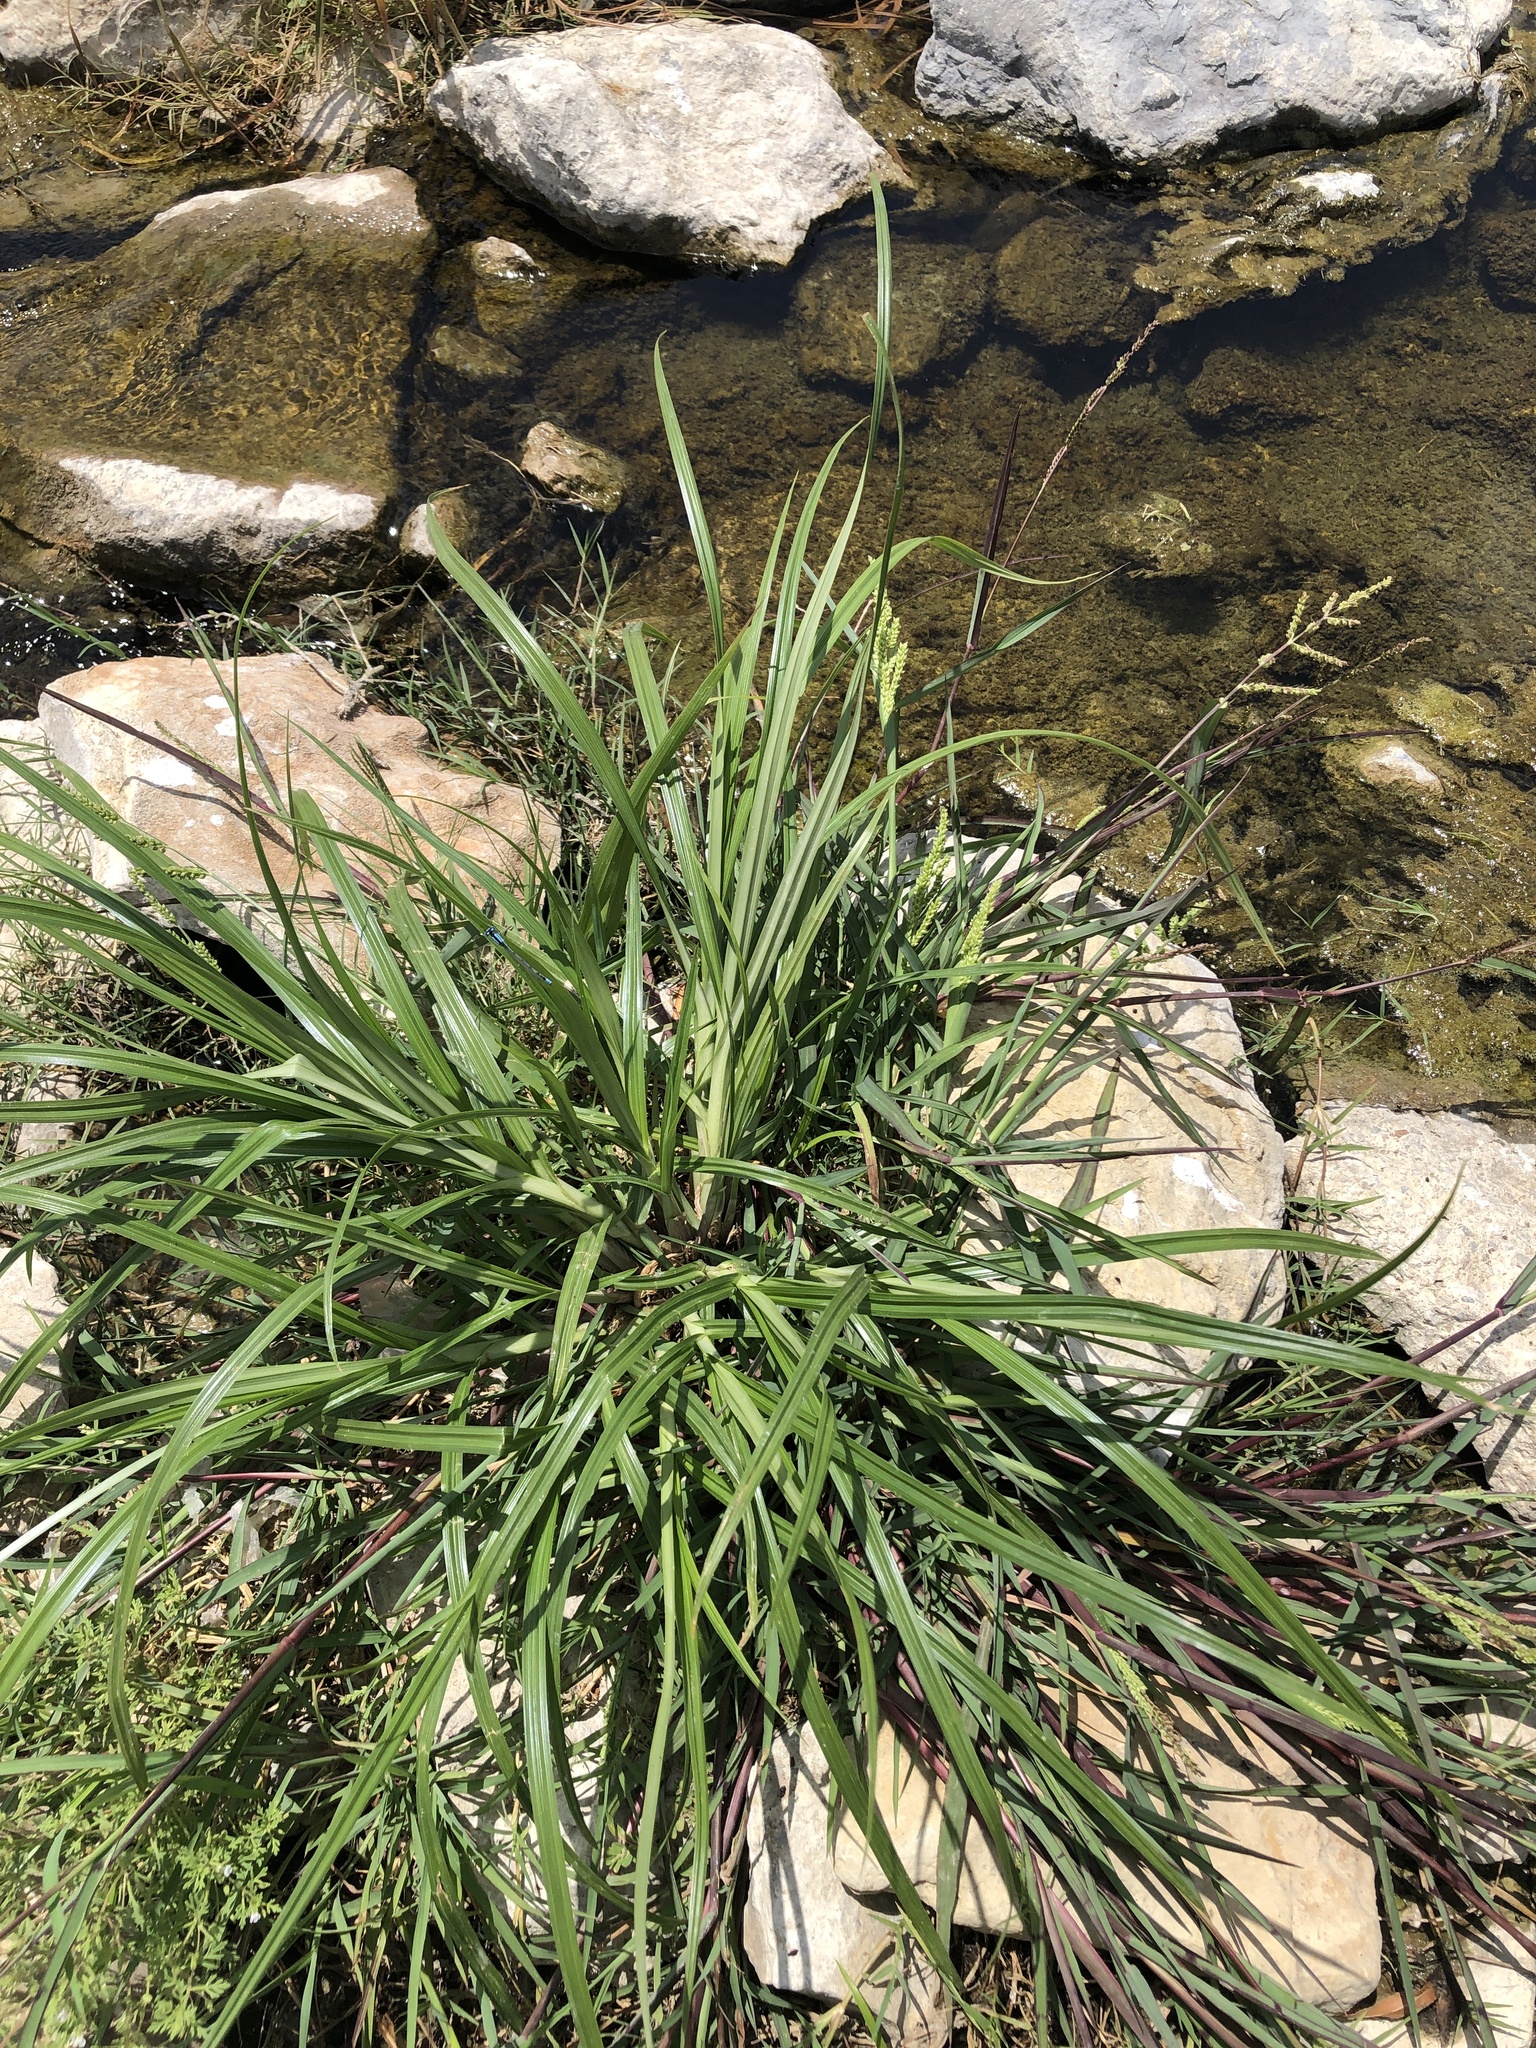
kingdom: Plantae
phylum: Tracheophyta
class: Liliopsida
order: Poales
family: Poaceae
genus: Echinochloa
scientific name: Echinochloa colonum
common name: Jungle rice
